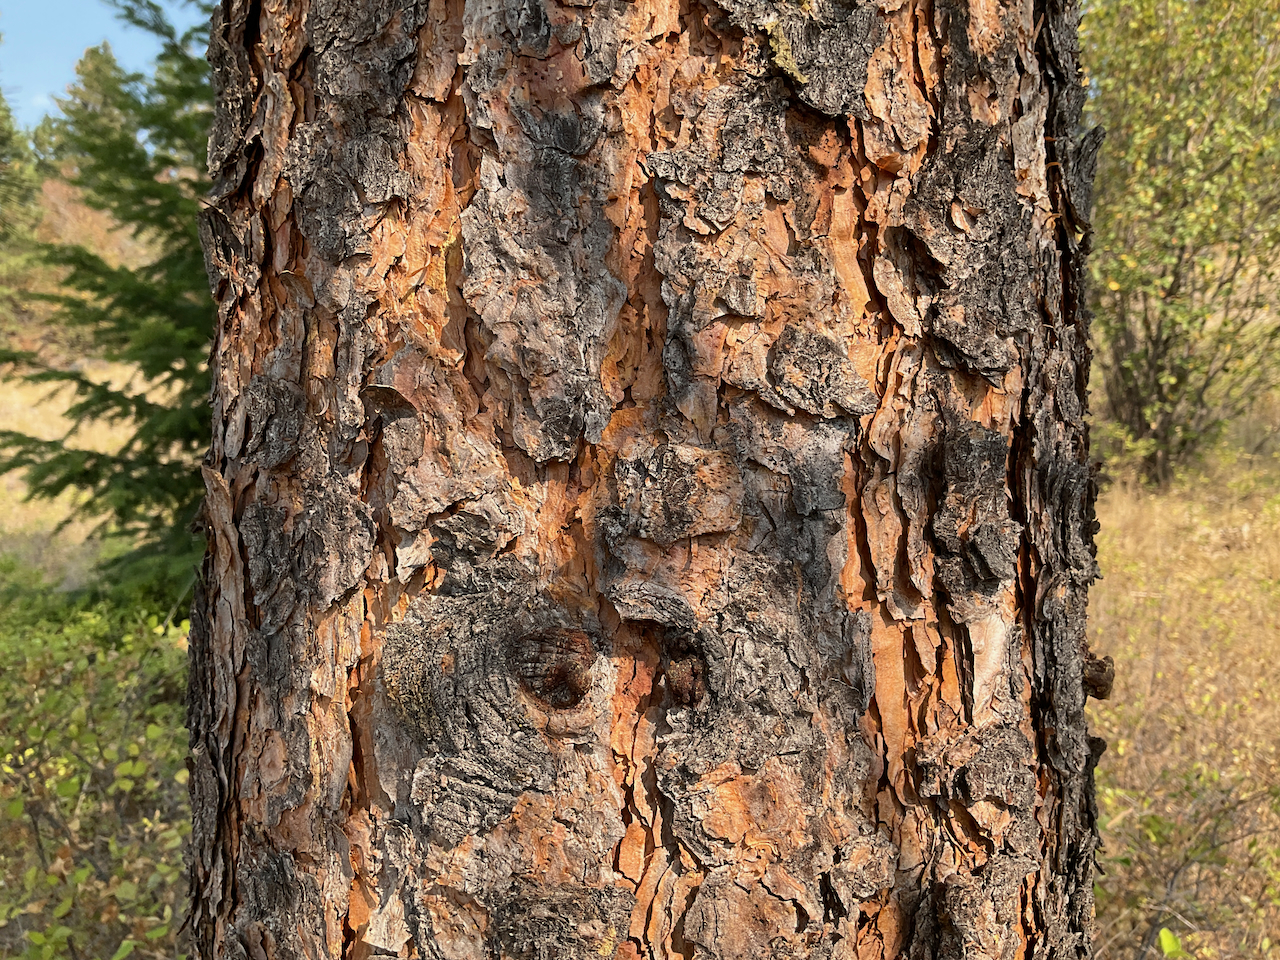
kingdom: Plantae
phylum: Tracheophyta
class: Pinopsida
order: Pinales
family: Pinaceae
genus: Pinus
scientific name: Pinus ponderosa
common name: Western yellow-pine
